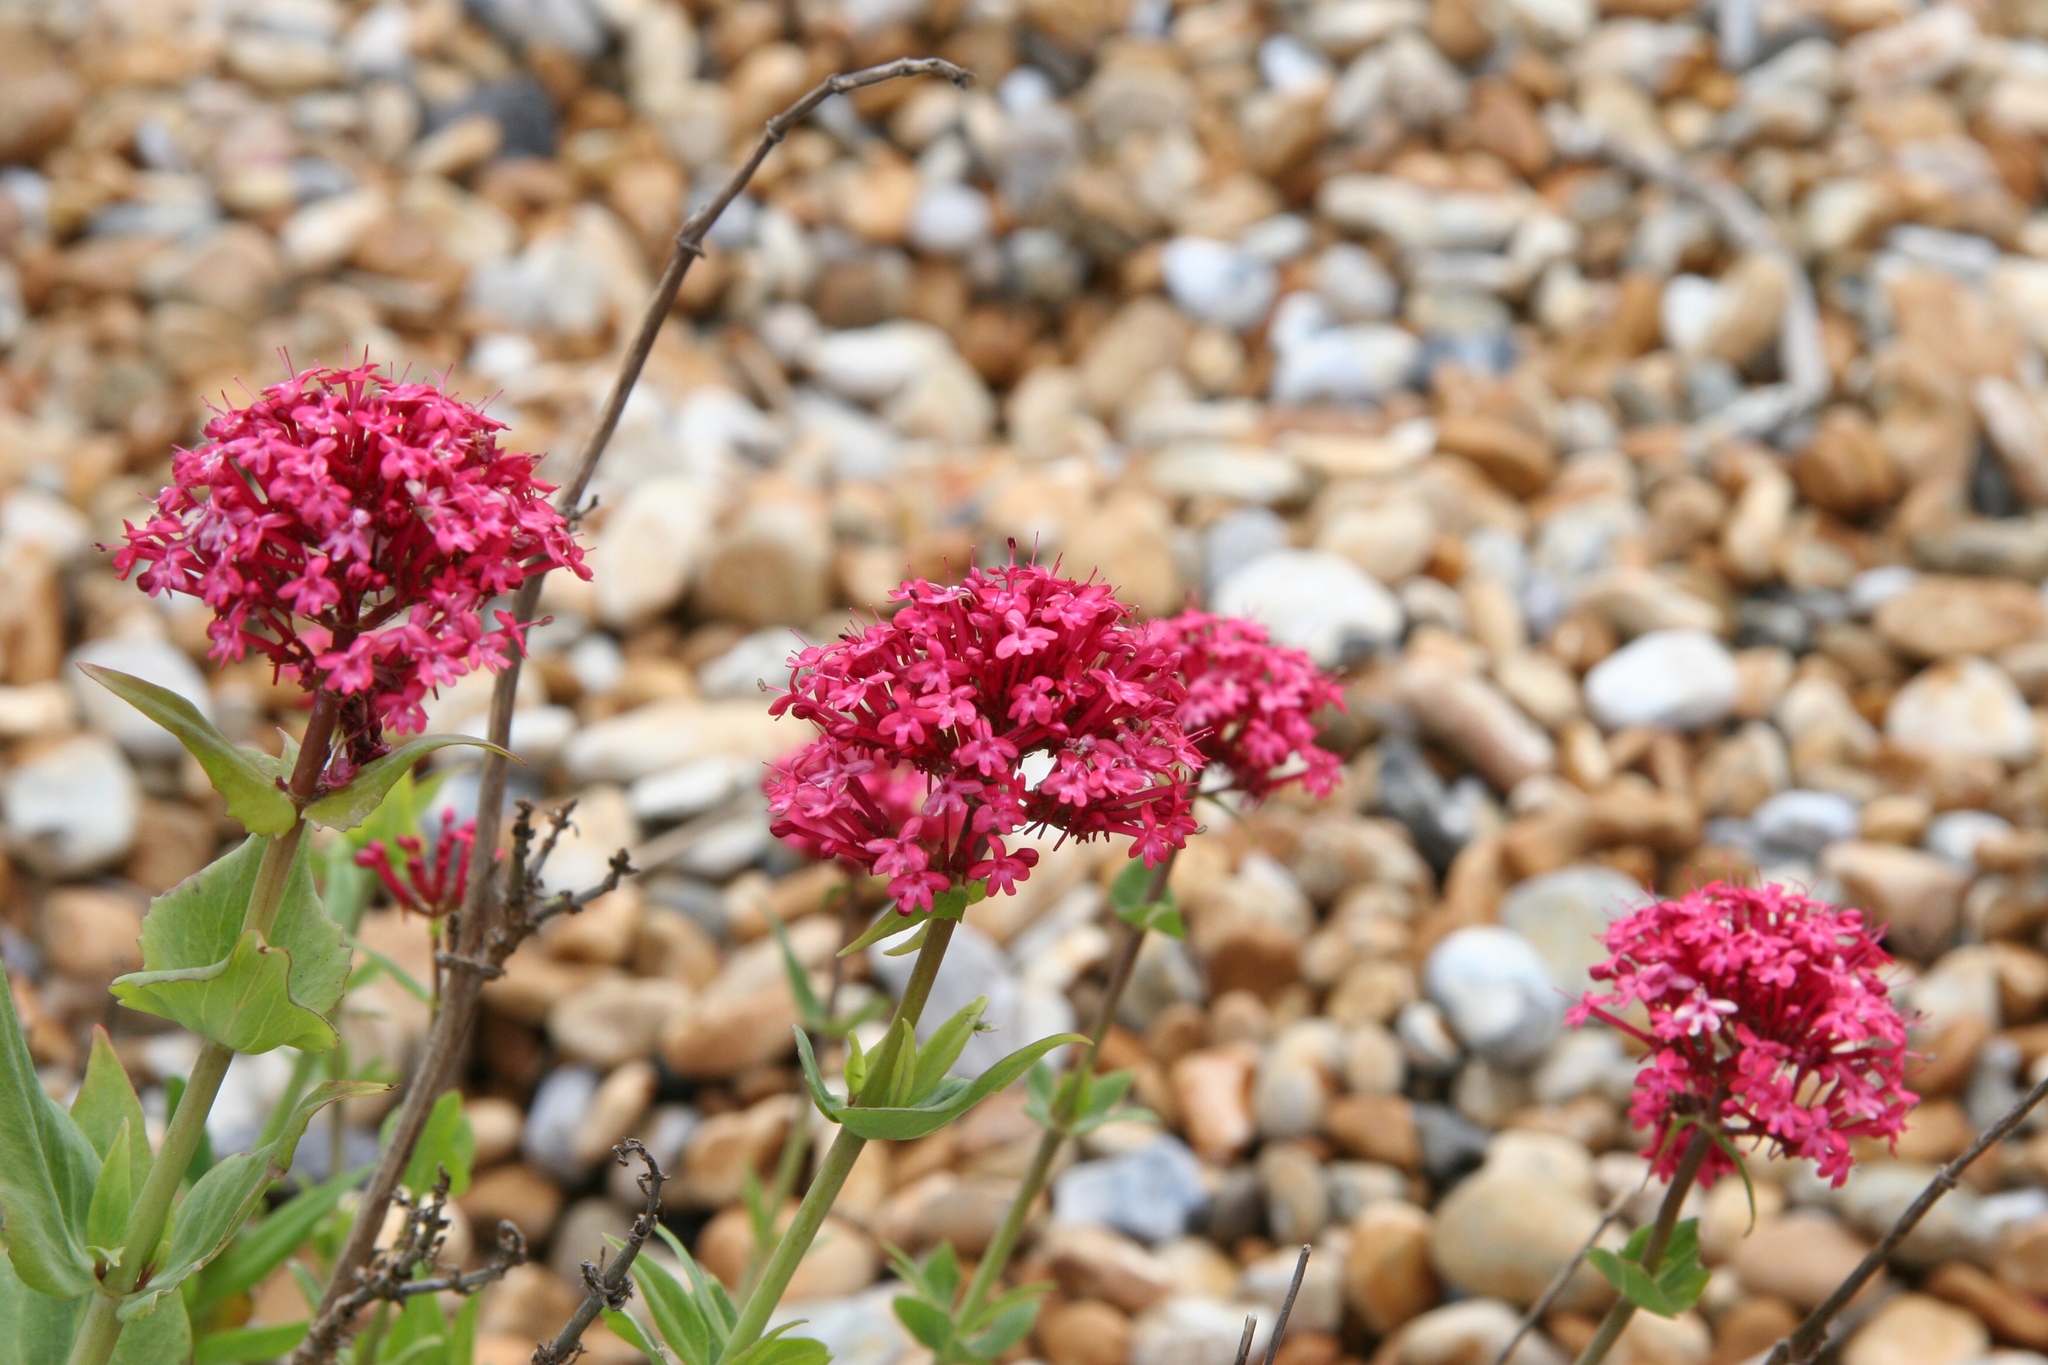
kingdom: Plantae
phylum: Tracheophyta
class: Magnoliopsida
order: Dipsacales
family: Caprifoliaceae
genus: Centranthus
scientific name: Centranthus ruber
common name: Red valerian
